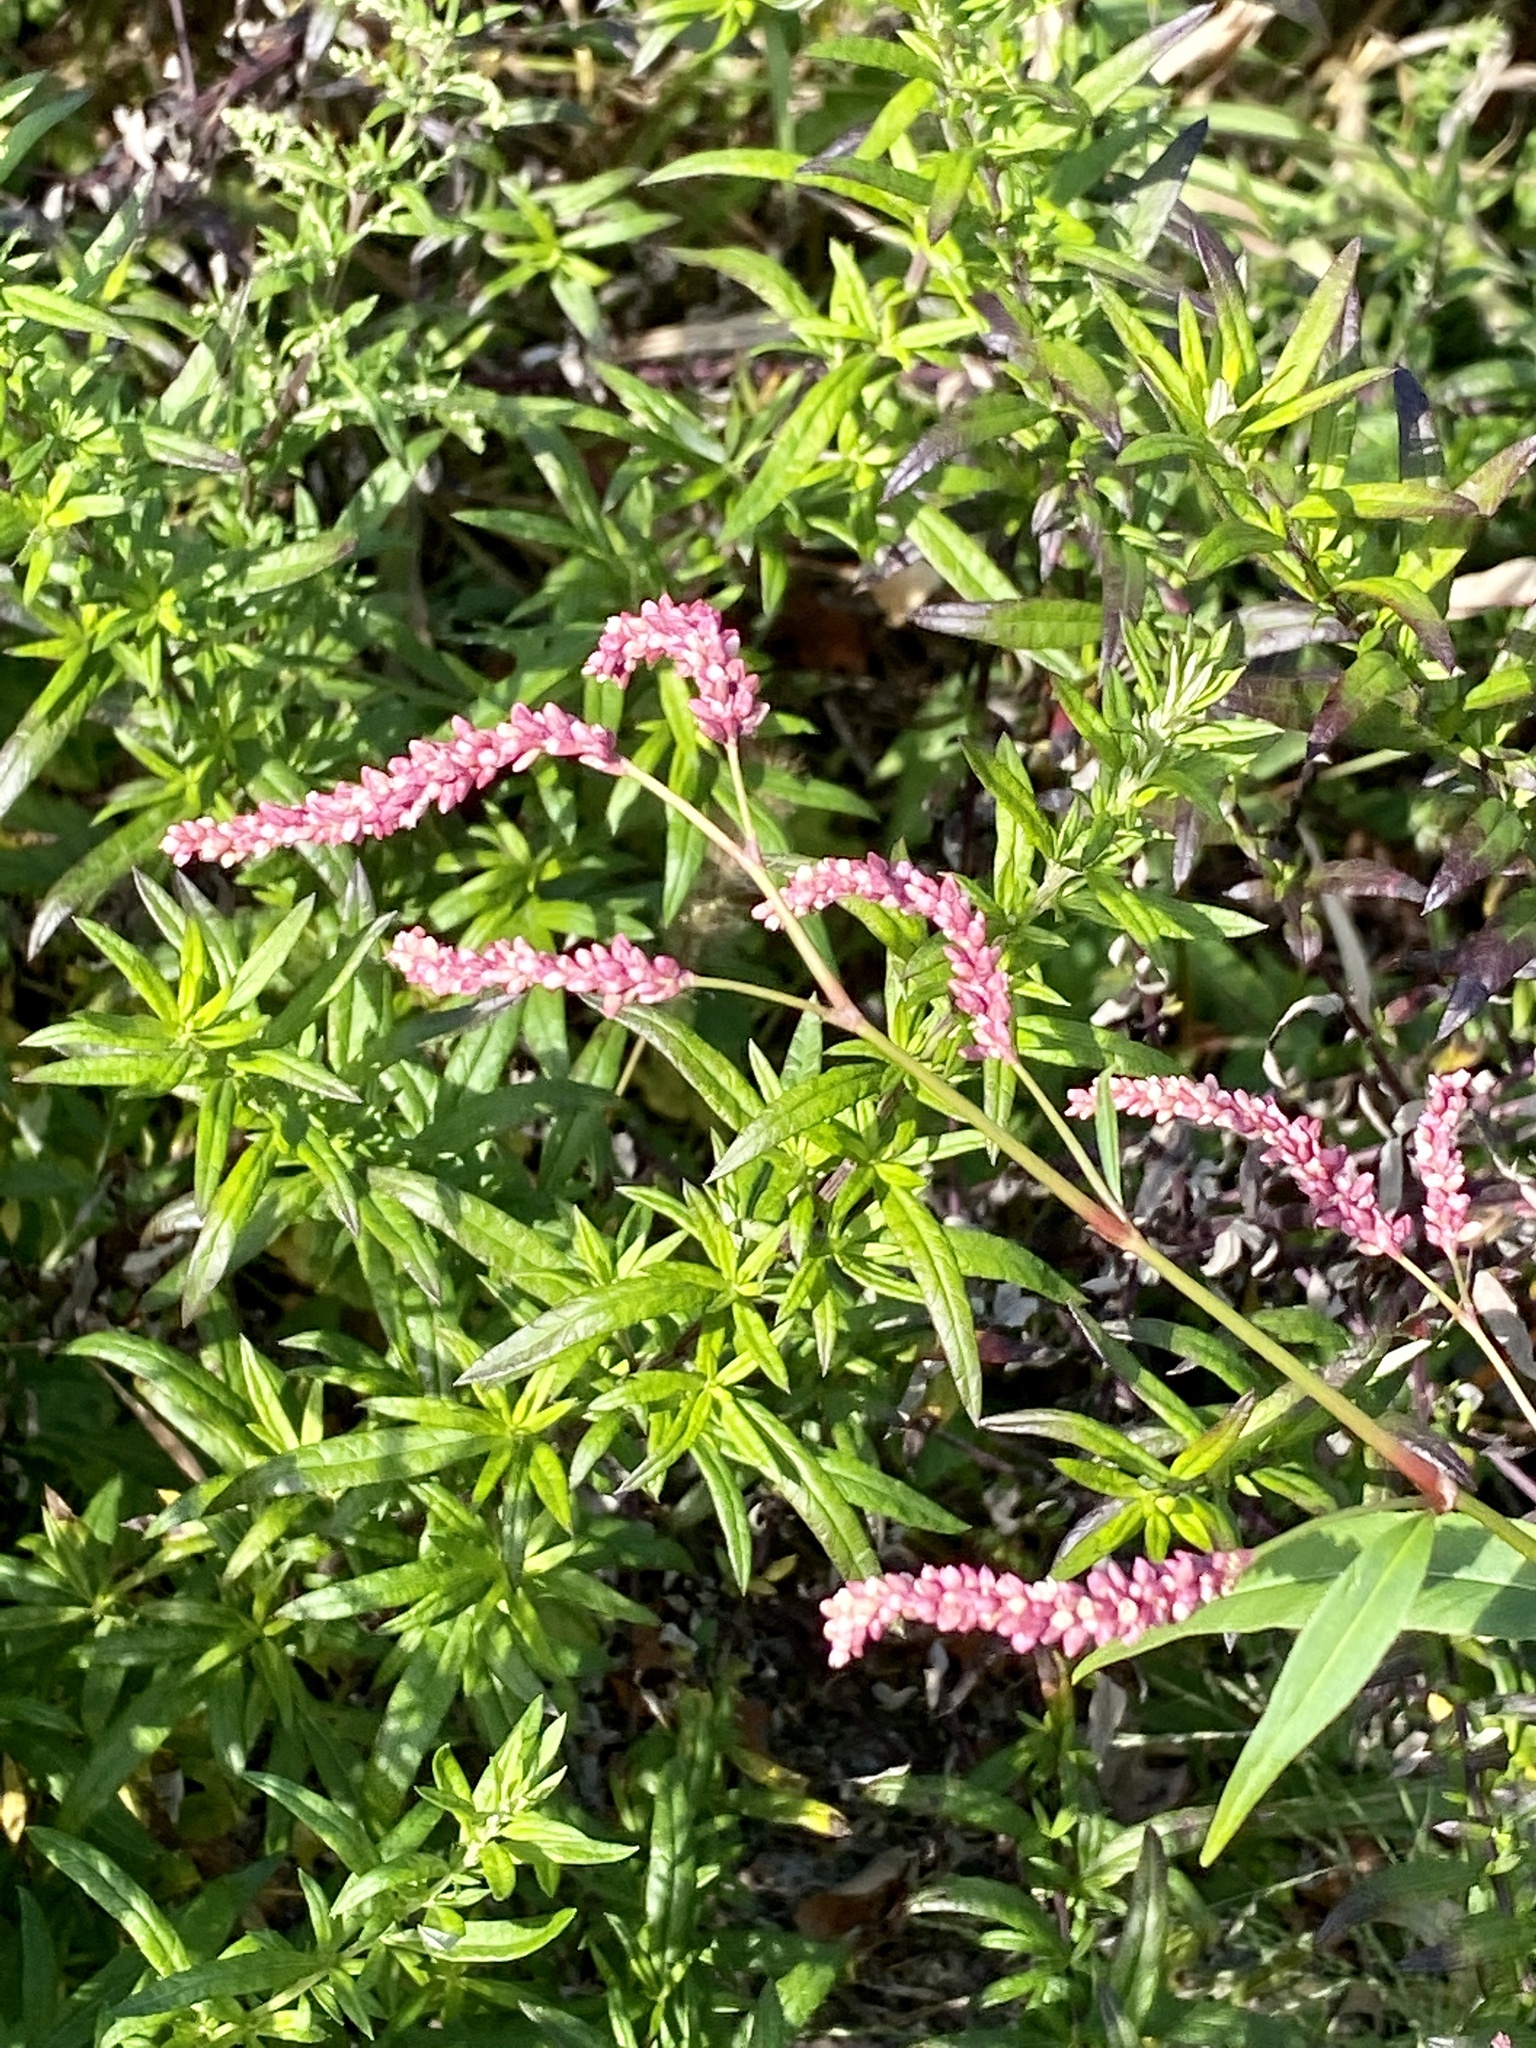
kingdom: Plantae
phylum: Tracheophyta
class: Magnoliopsida
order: Caryophyllales
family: Polygonaceae
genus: Persicaria
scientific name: Persicaria extremiorientalis
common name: Far-eastern smartweed
